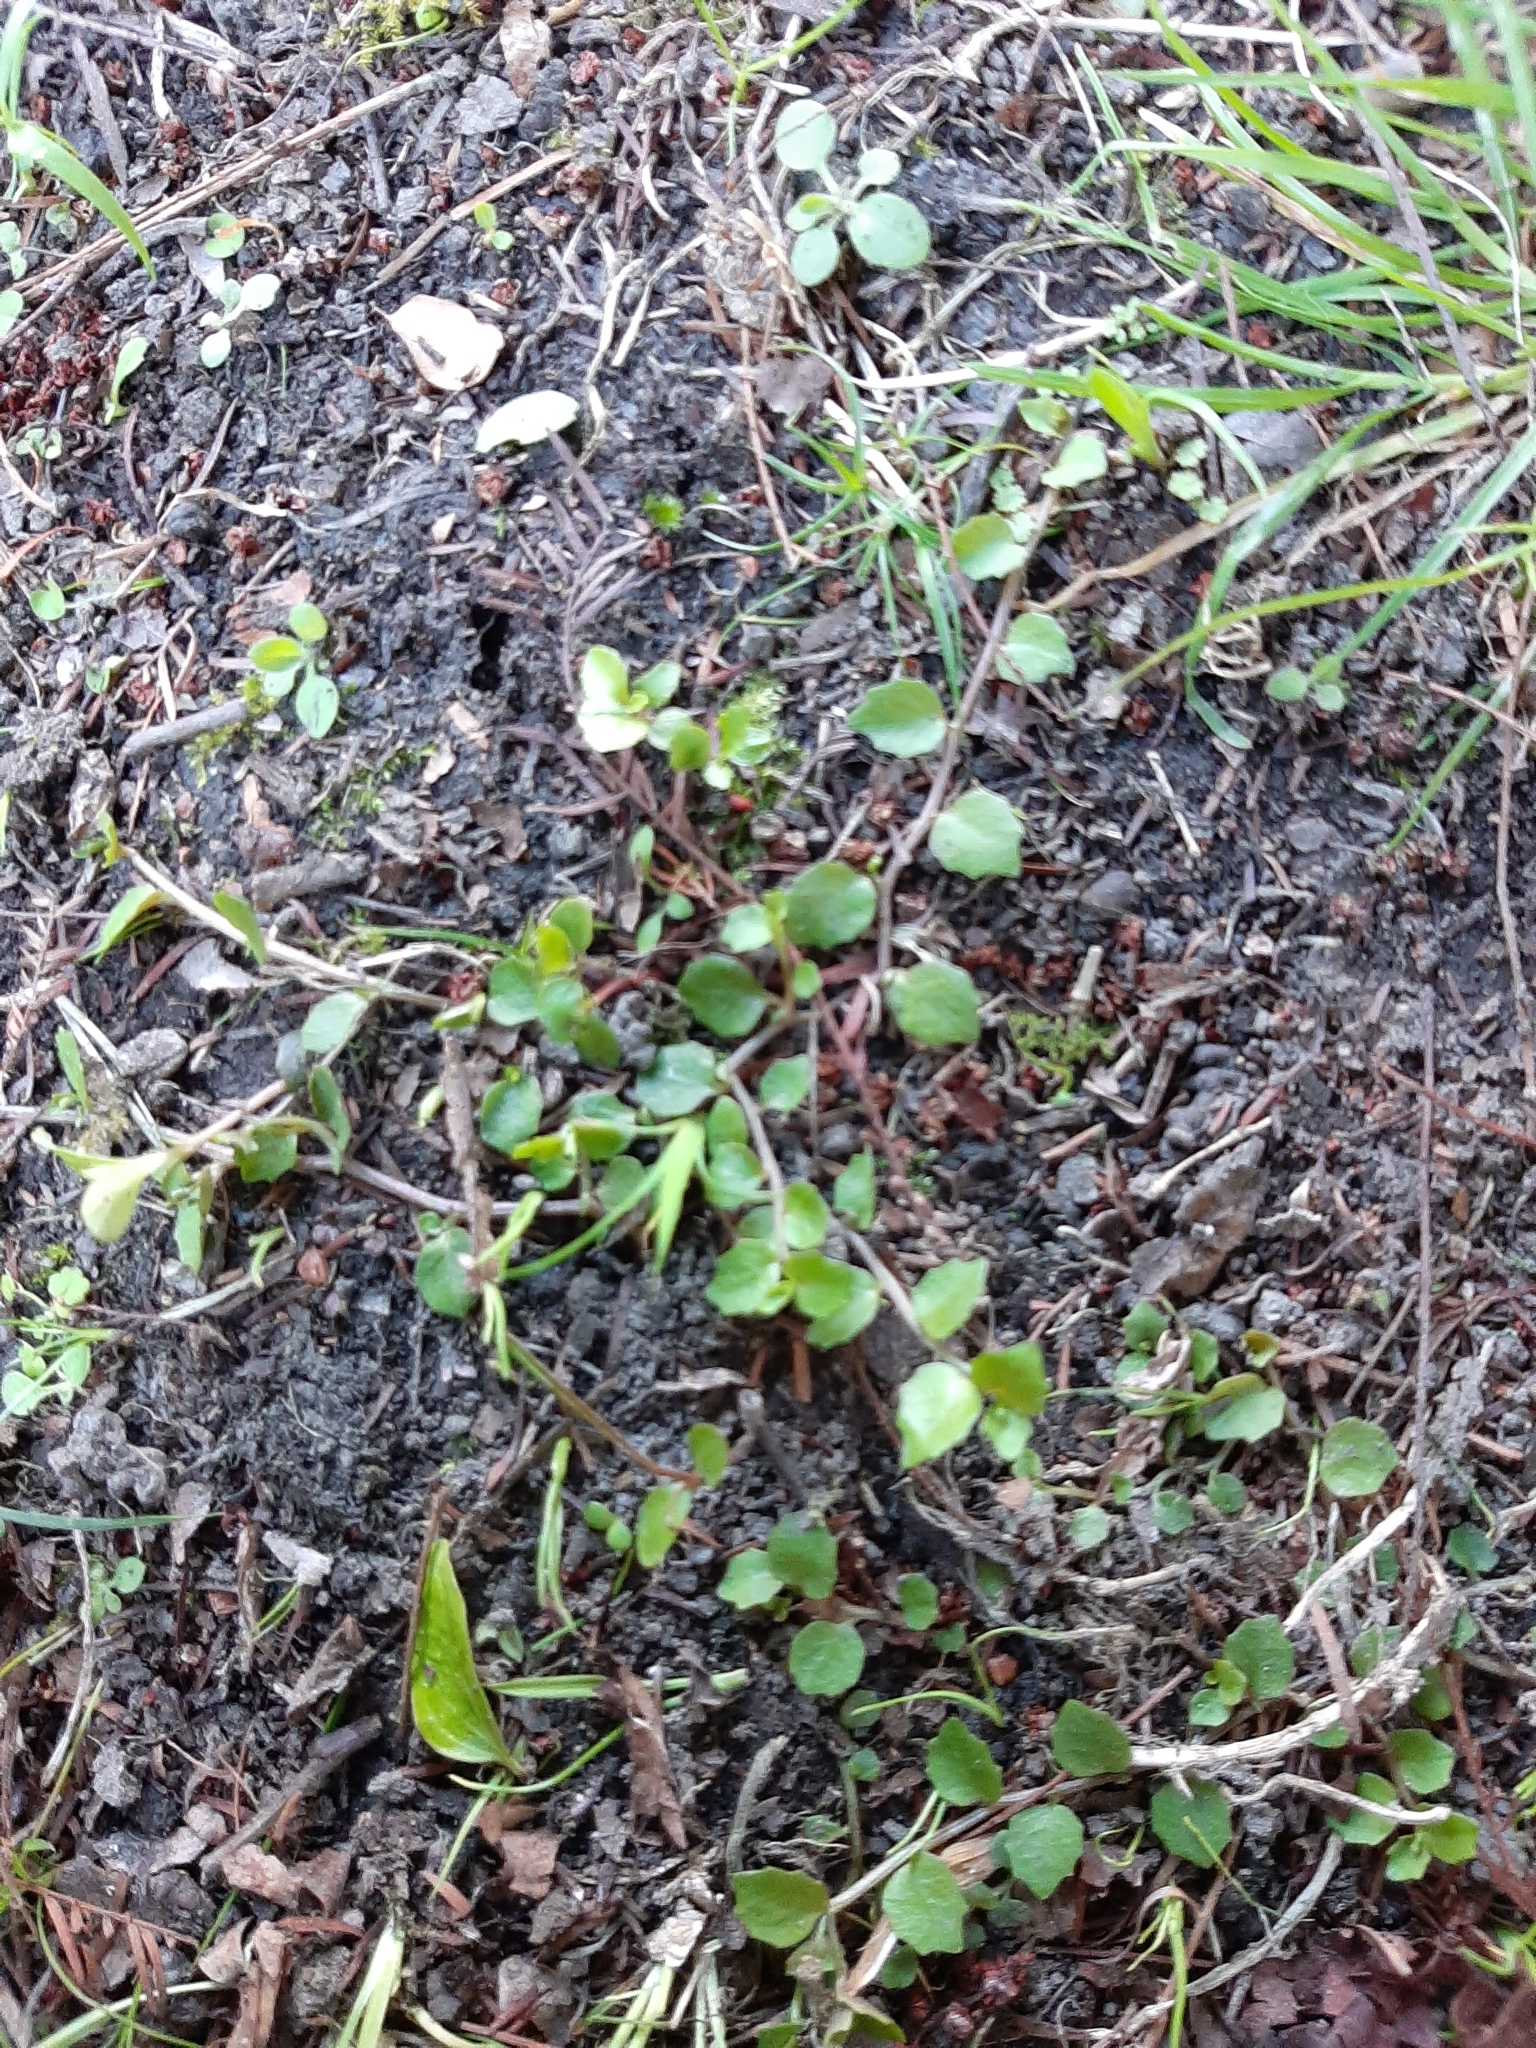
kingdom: Plantae
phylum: Tracheophyta
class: Magnoliopsida
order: Asterales
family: Campanulaceae
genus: Lobelia
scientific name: Lobelia angulata
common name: Lawn lobelia
